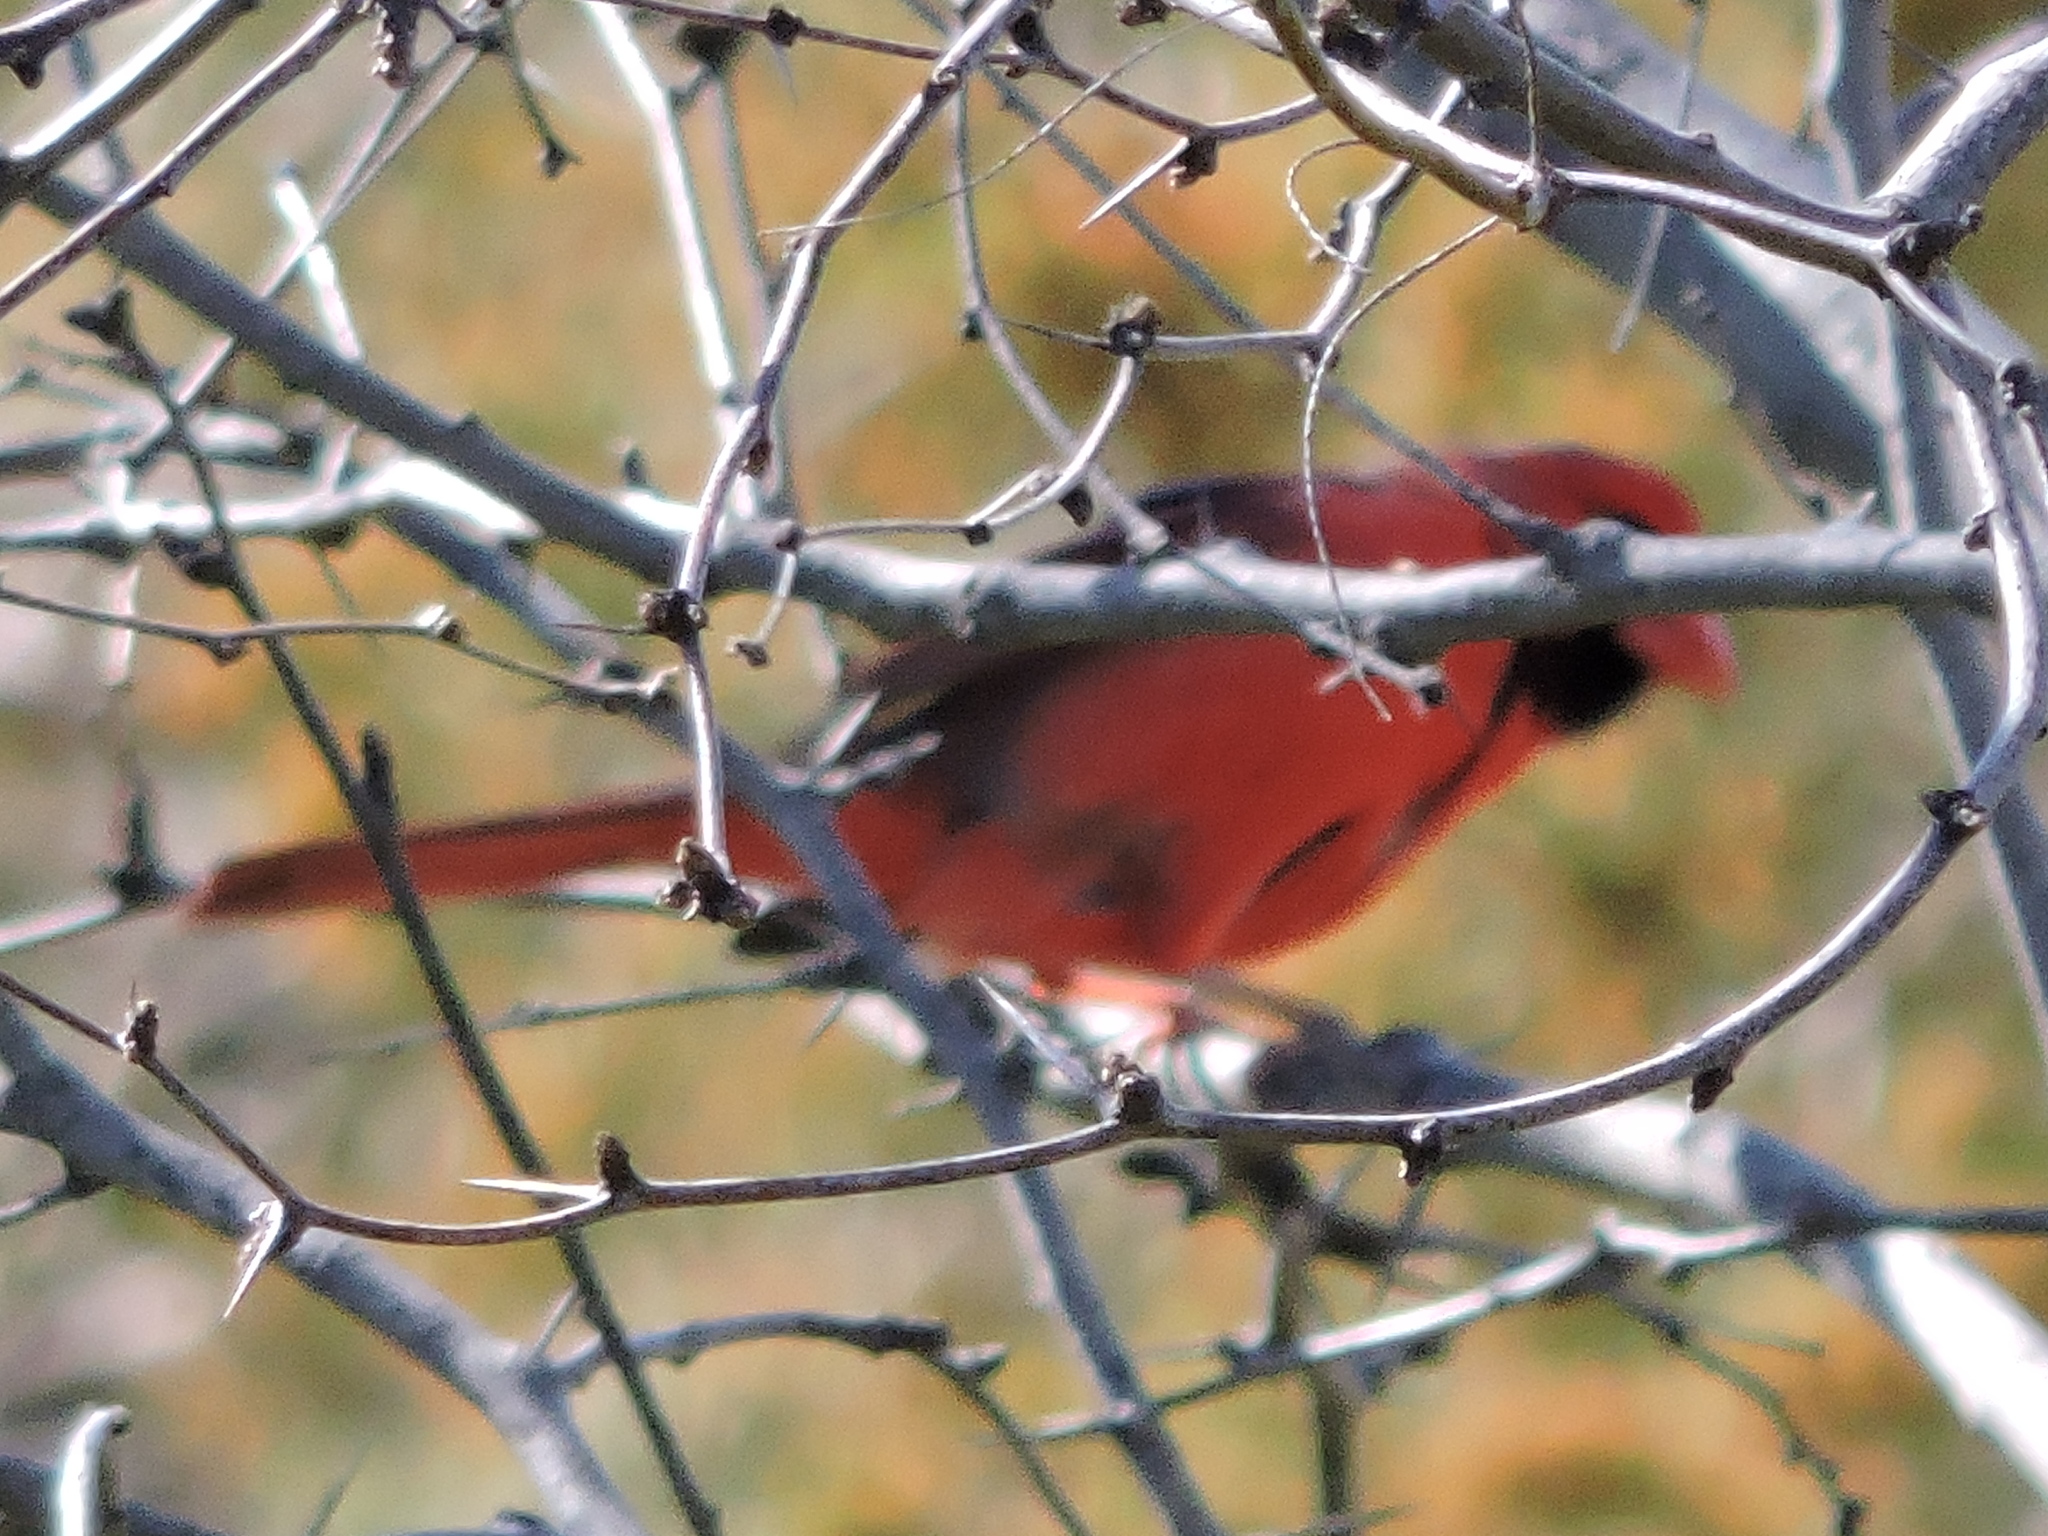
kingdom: Animalia
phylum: Chordata
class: Aves
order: Passeriformes
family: Cardinalidae
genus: Cardinalis
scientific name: Cardinalis cardinalis
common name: Northern cardinal
